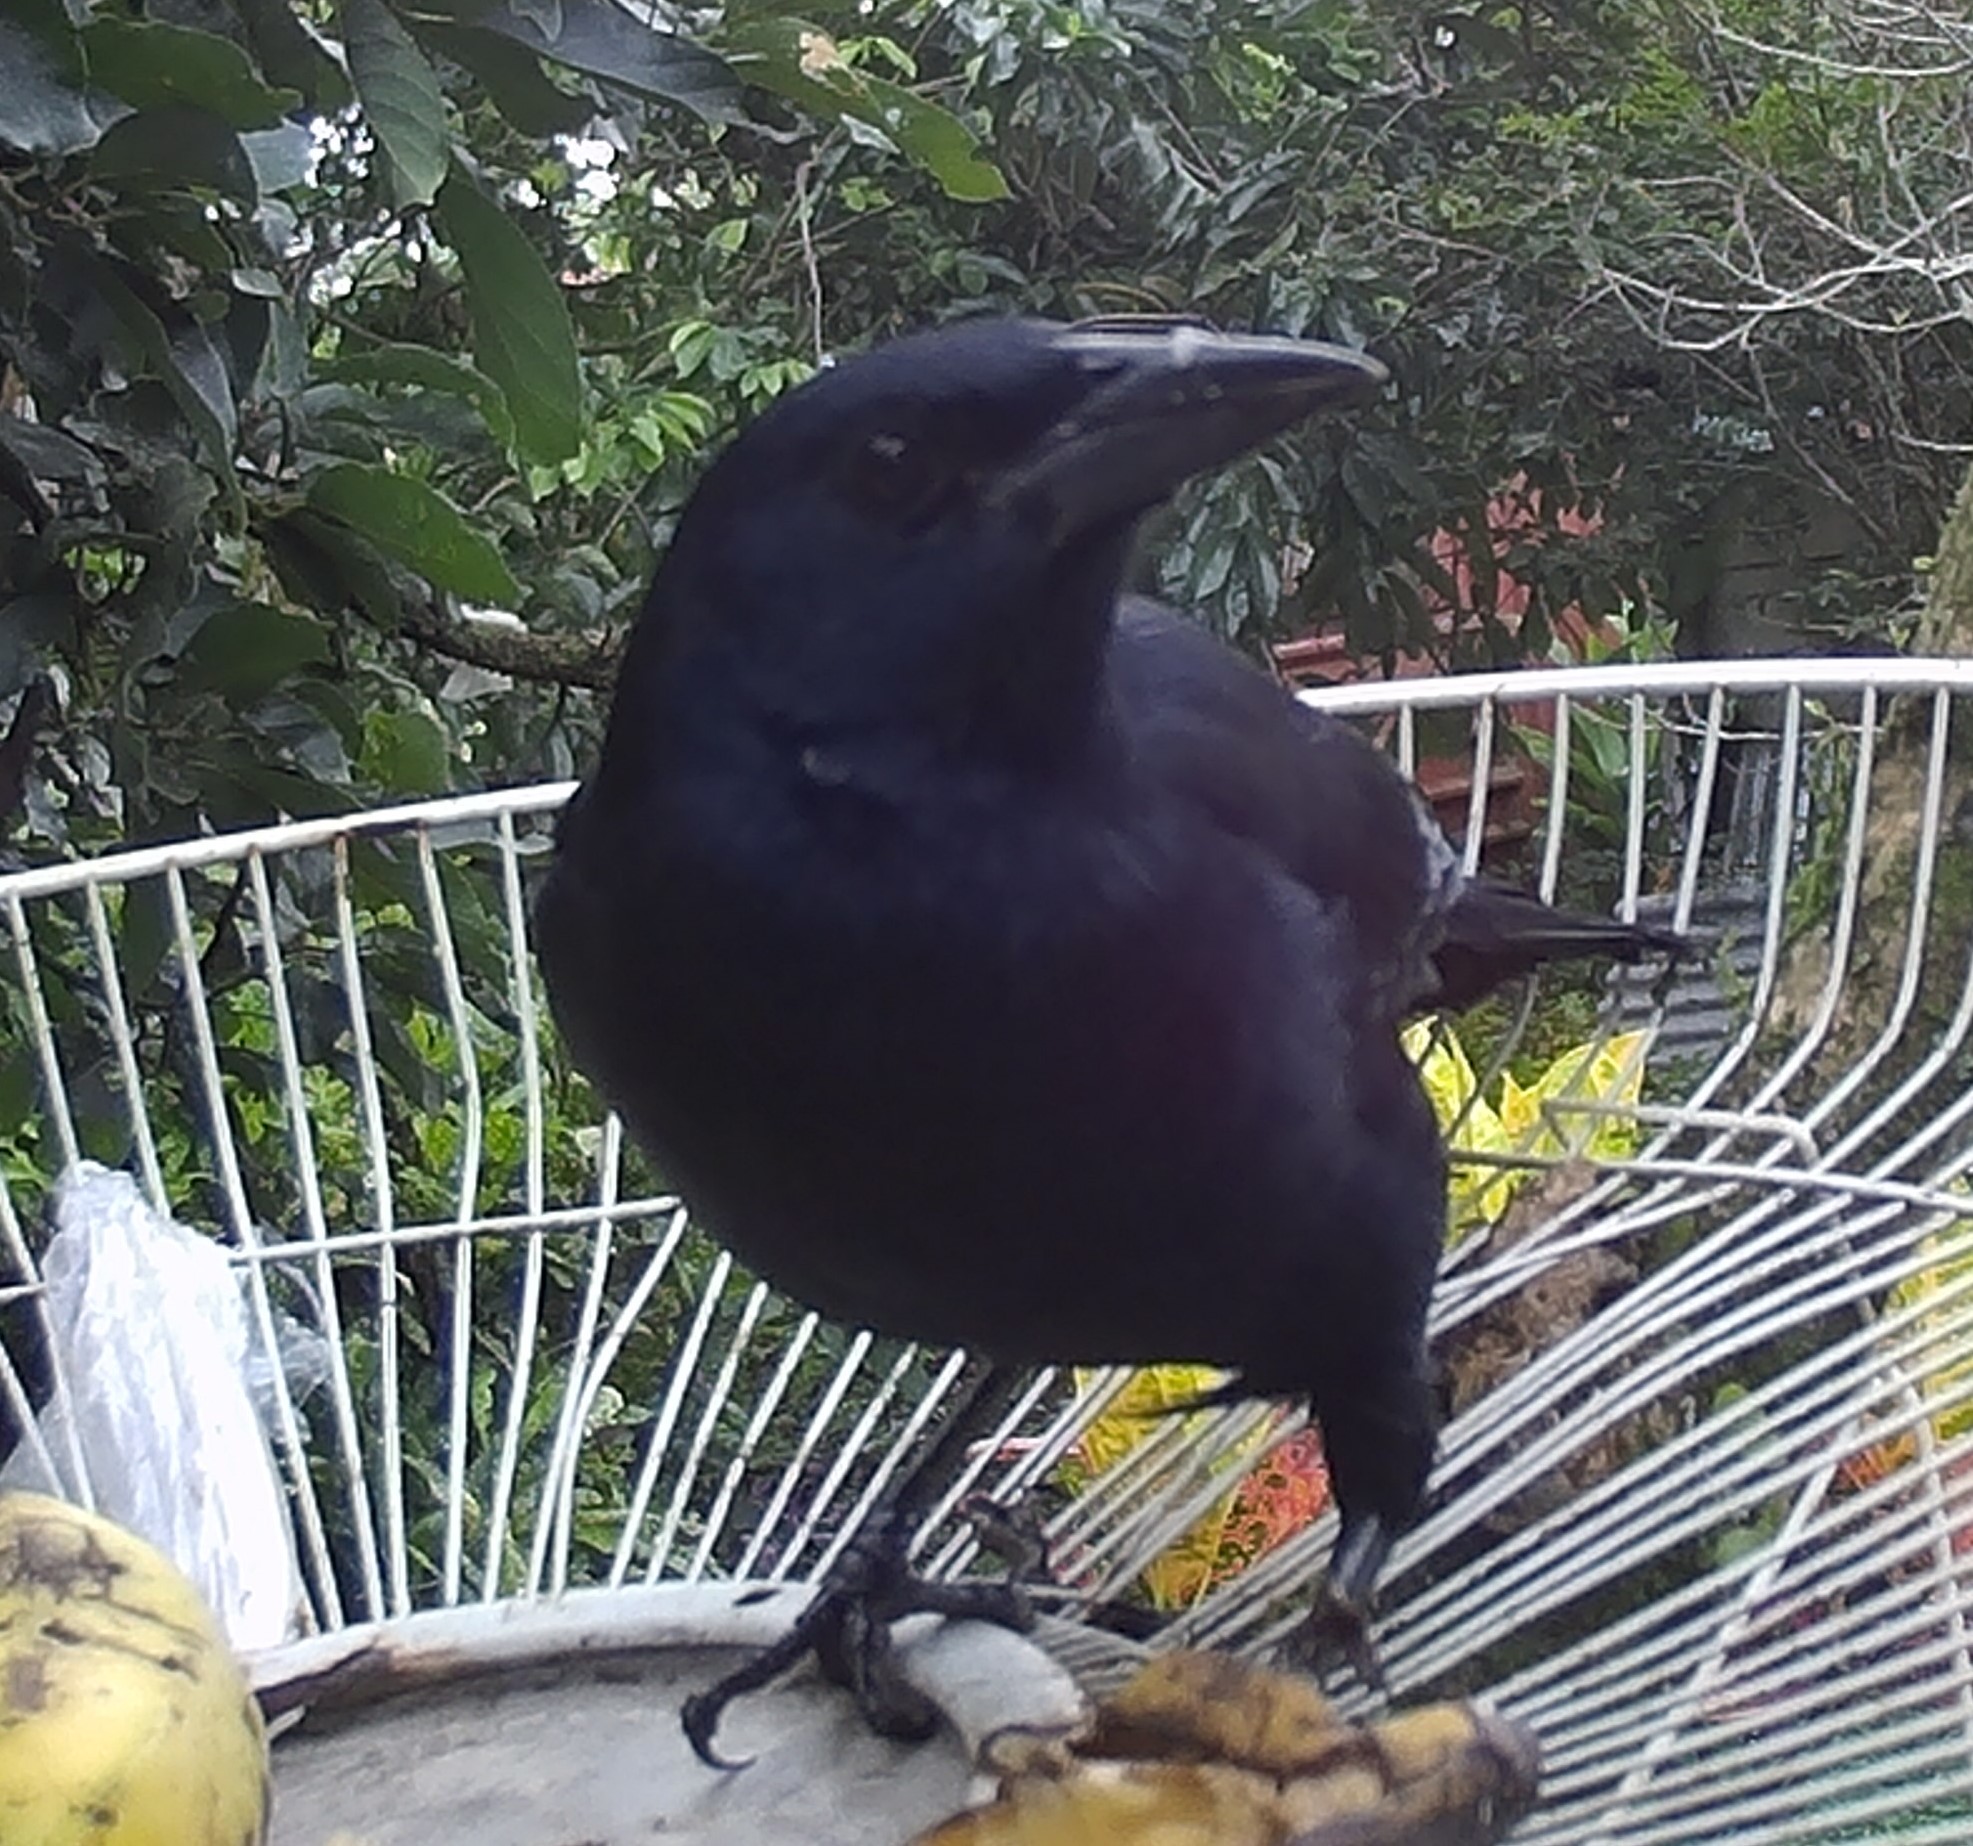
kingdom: Animalia
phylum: Chordata
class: Aves
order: Passeriformes
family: Icteridae
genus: Dives
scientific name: Dives dives
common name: Melodious blackbird
